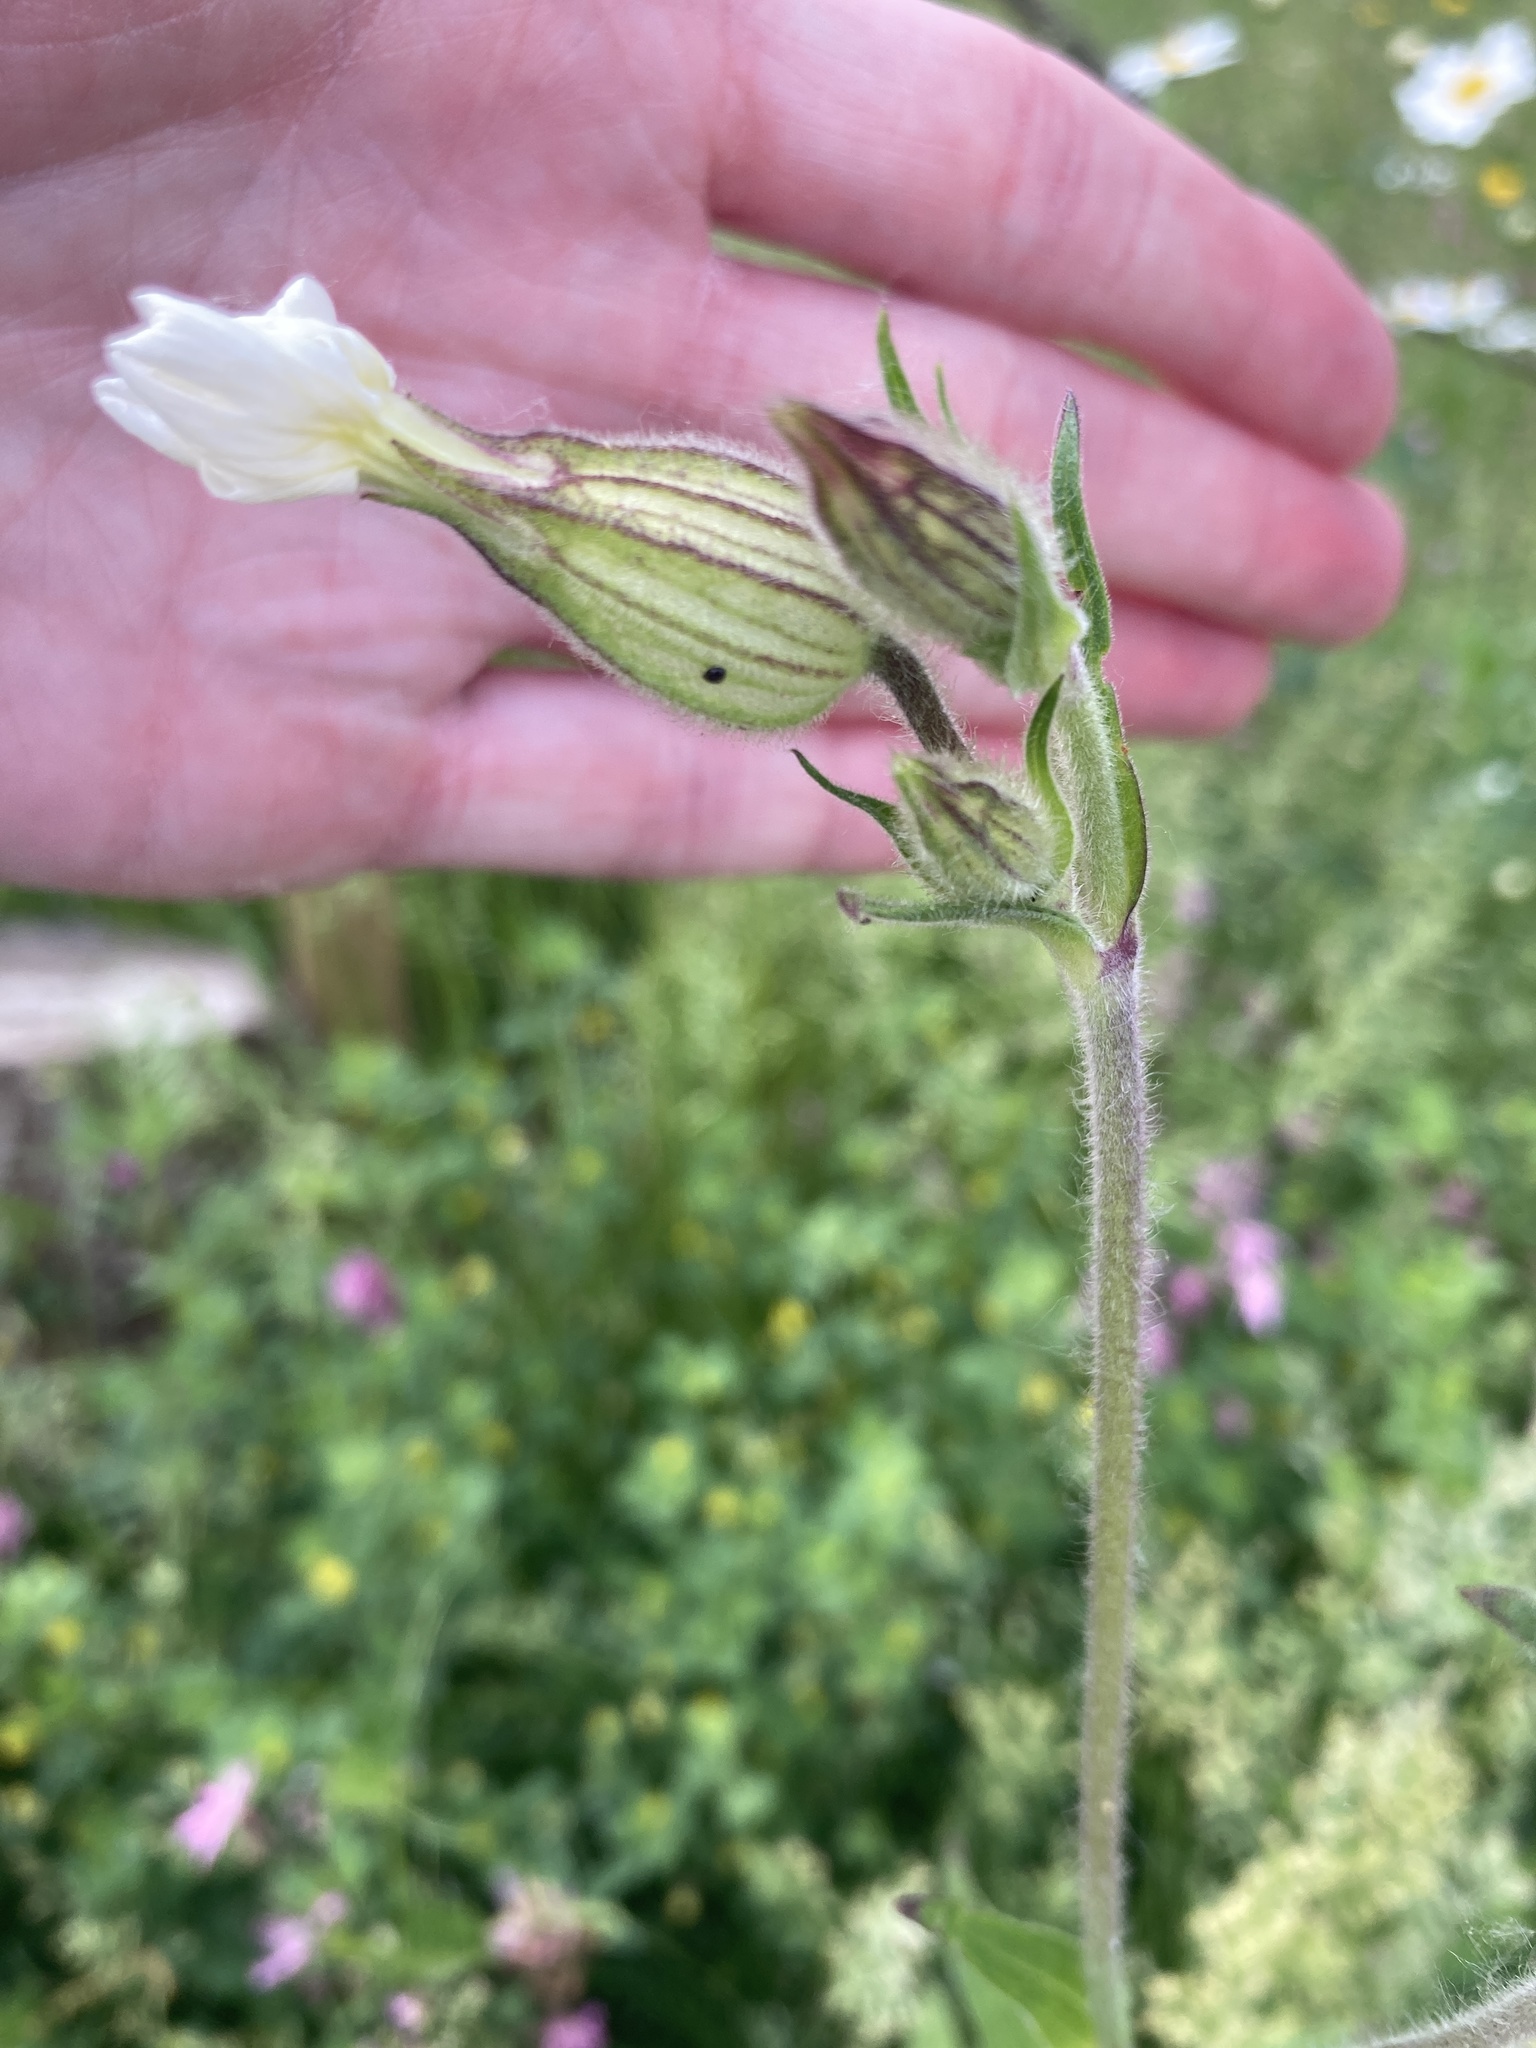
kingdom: Plantae
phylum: Tracheophyta
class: Magnoliopsida
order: Caryophyllales
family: Caryophyllaceae
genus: Silene
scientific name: Silene latifolia
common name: White campion
